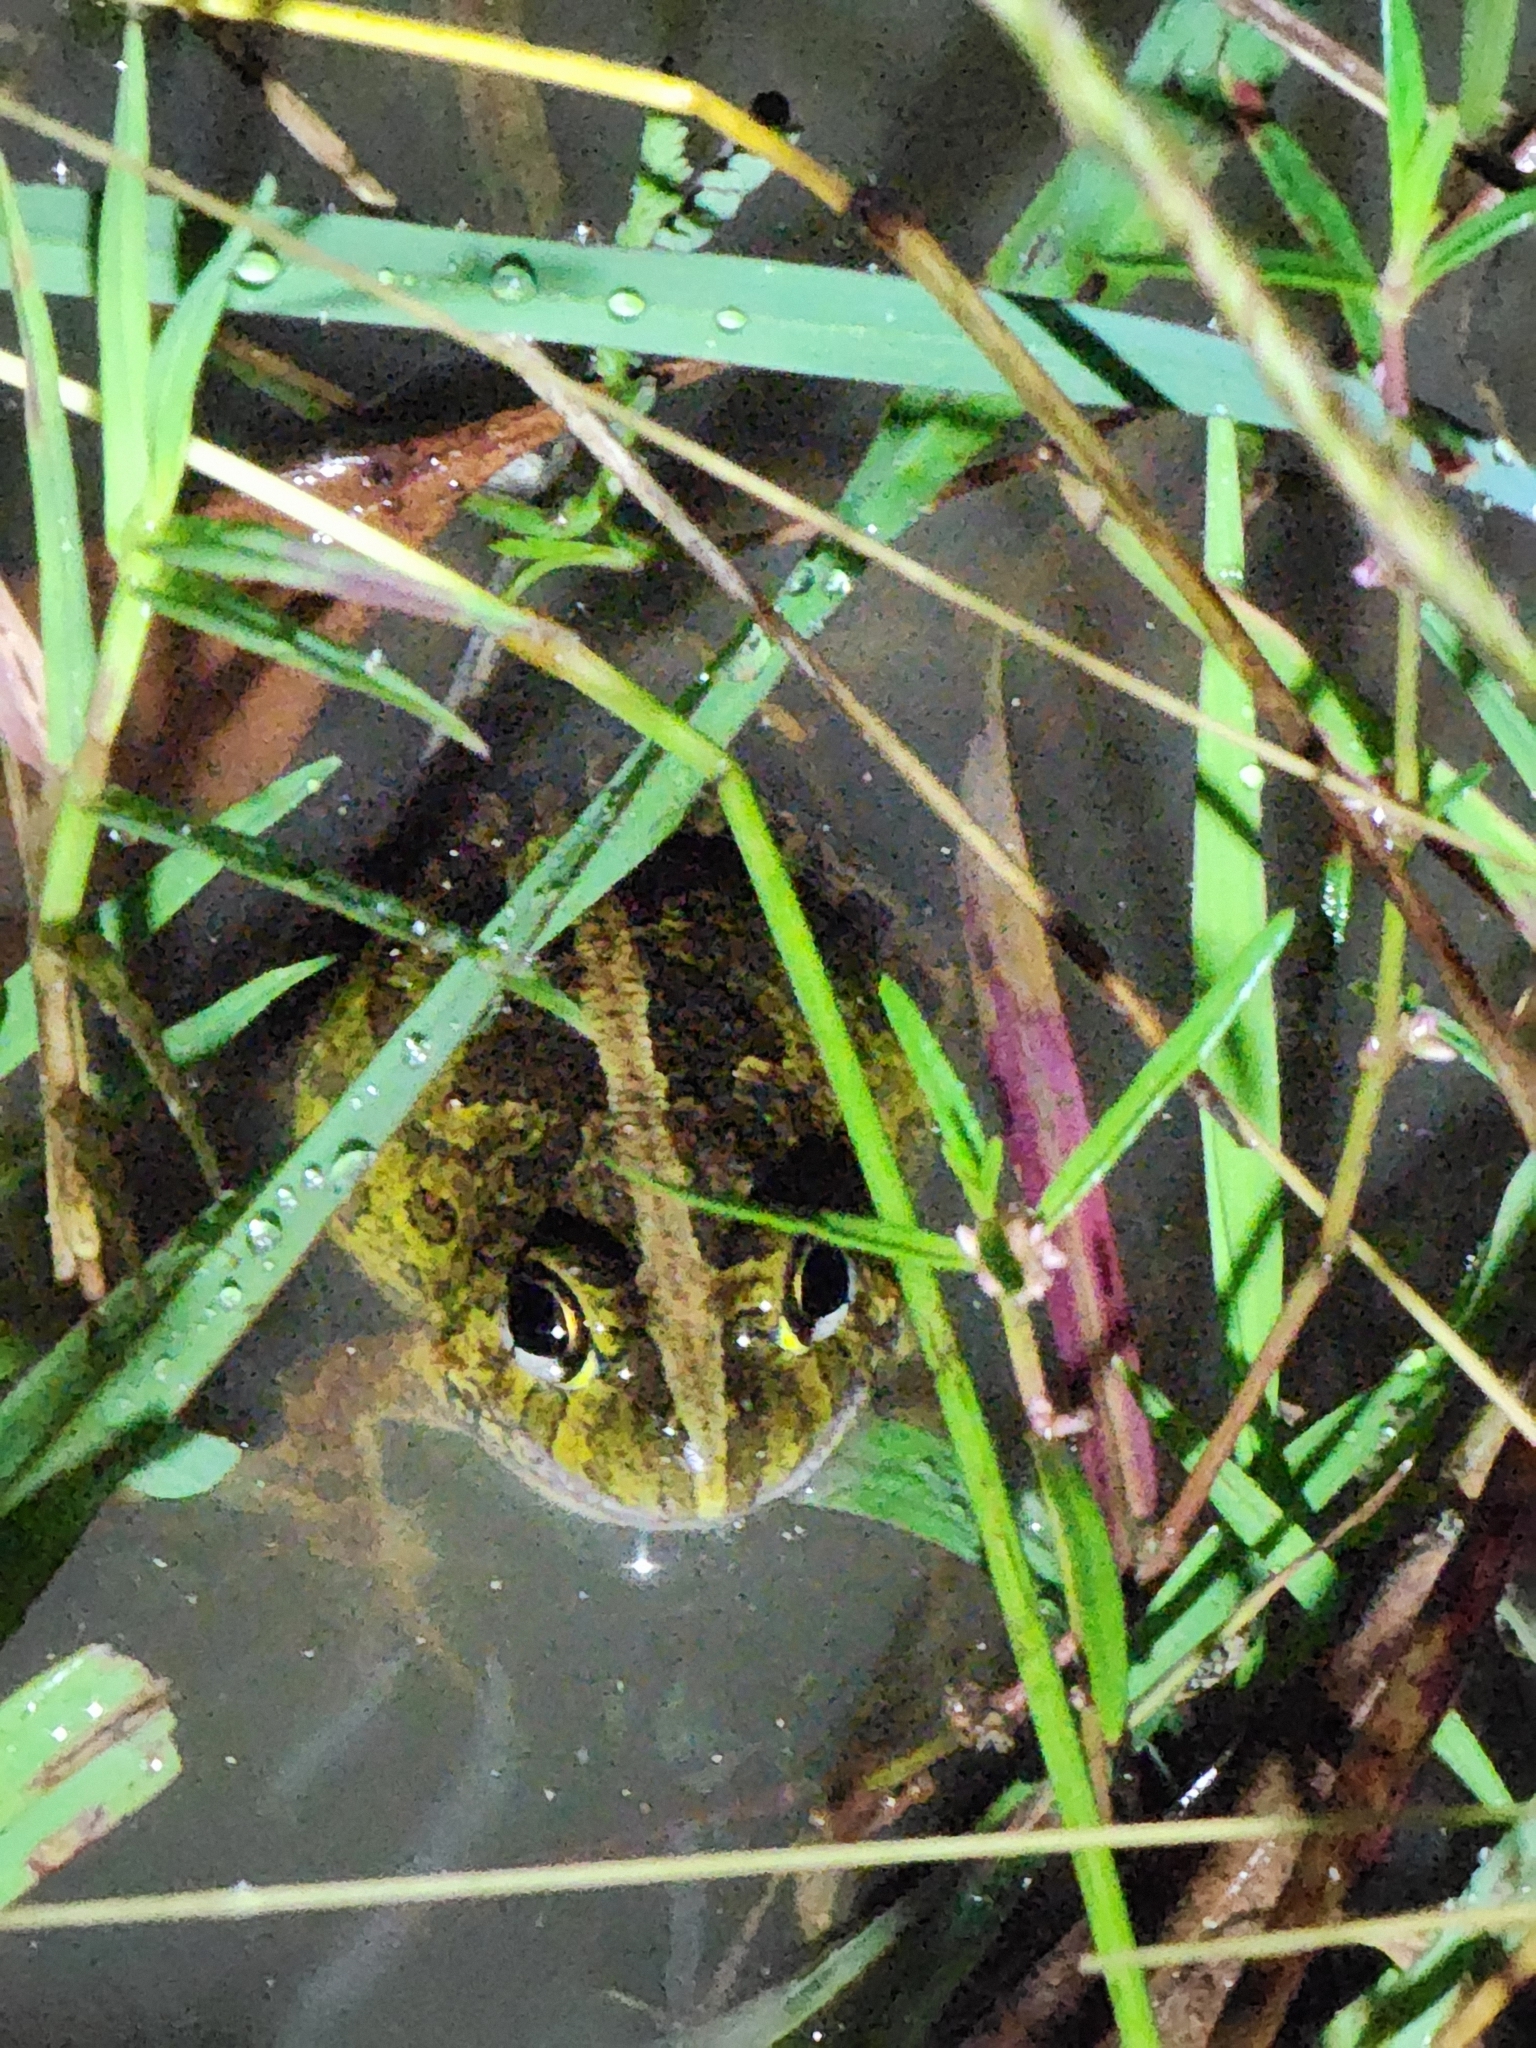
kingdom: Animalia
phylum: Chordata
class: Amphibia
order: Anura
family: Limnodynastidae
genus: Platyplectrum
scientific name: Platyplectrum ornatum
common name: Ornate burrowing frog
